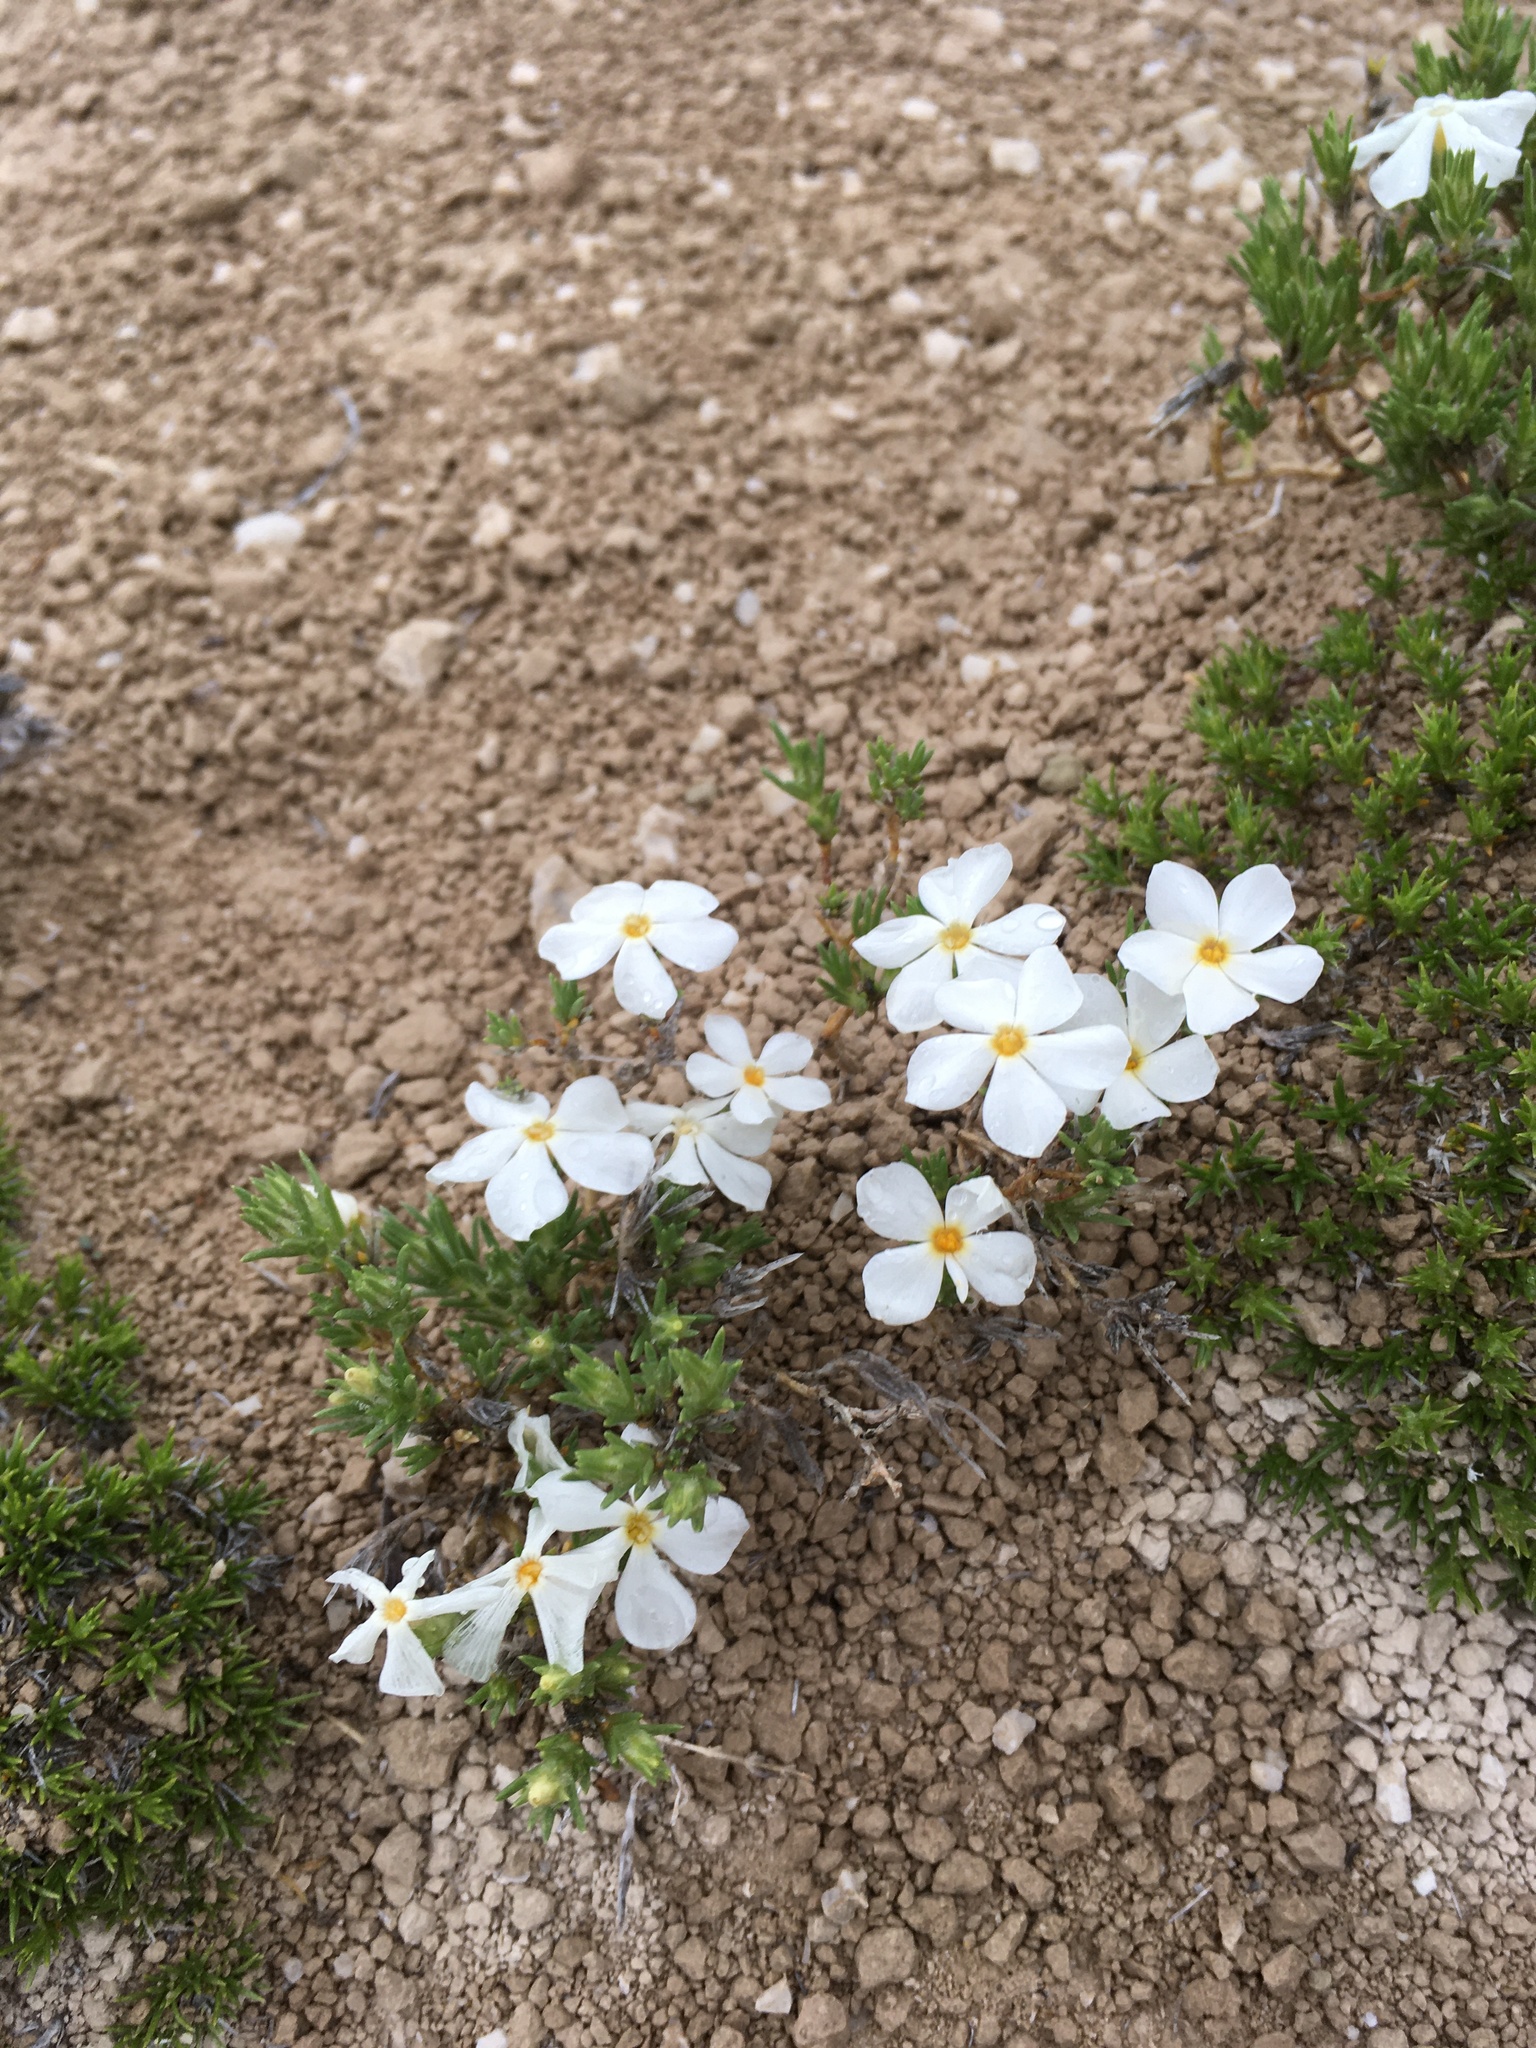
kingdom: Plantae
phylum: Tracheophyta
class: Magnoliopsida
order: Ericales
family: Polemoniaceae
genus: Phlox
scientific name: Phlox hoodii
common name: Moss phlox
